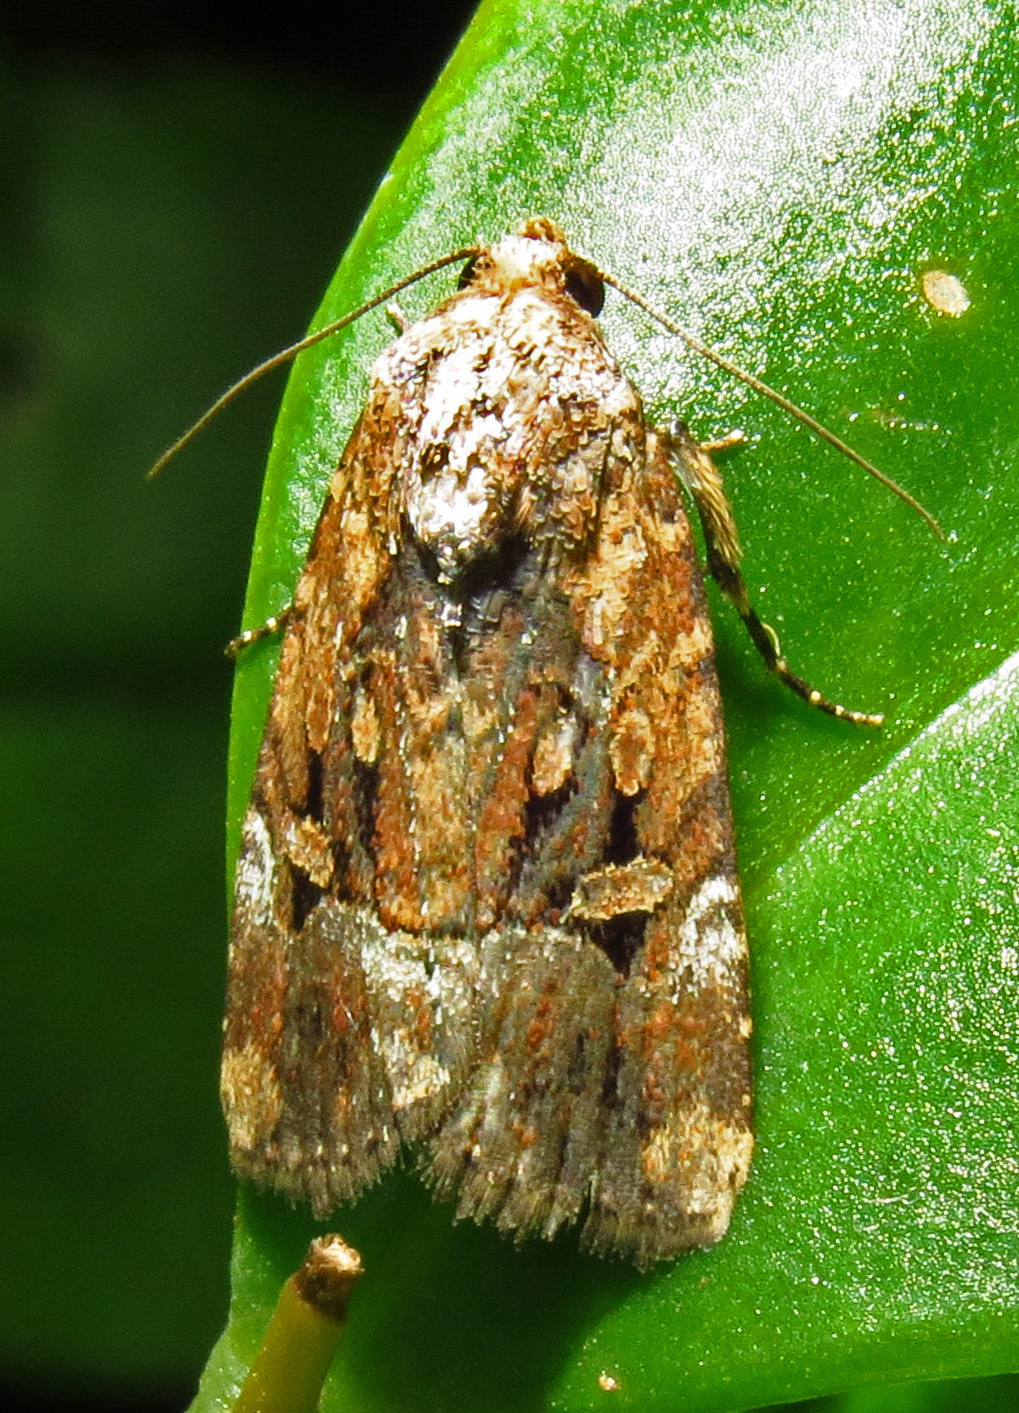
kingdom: Animalia
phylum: Arthropoda
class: Insecta
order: Lepidoptera
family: Noctuidae
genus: Elaphria
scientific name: Elaphria chalcedonia
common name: Chalcedony midget
